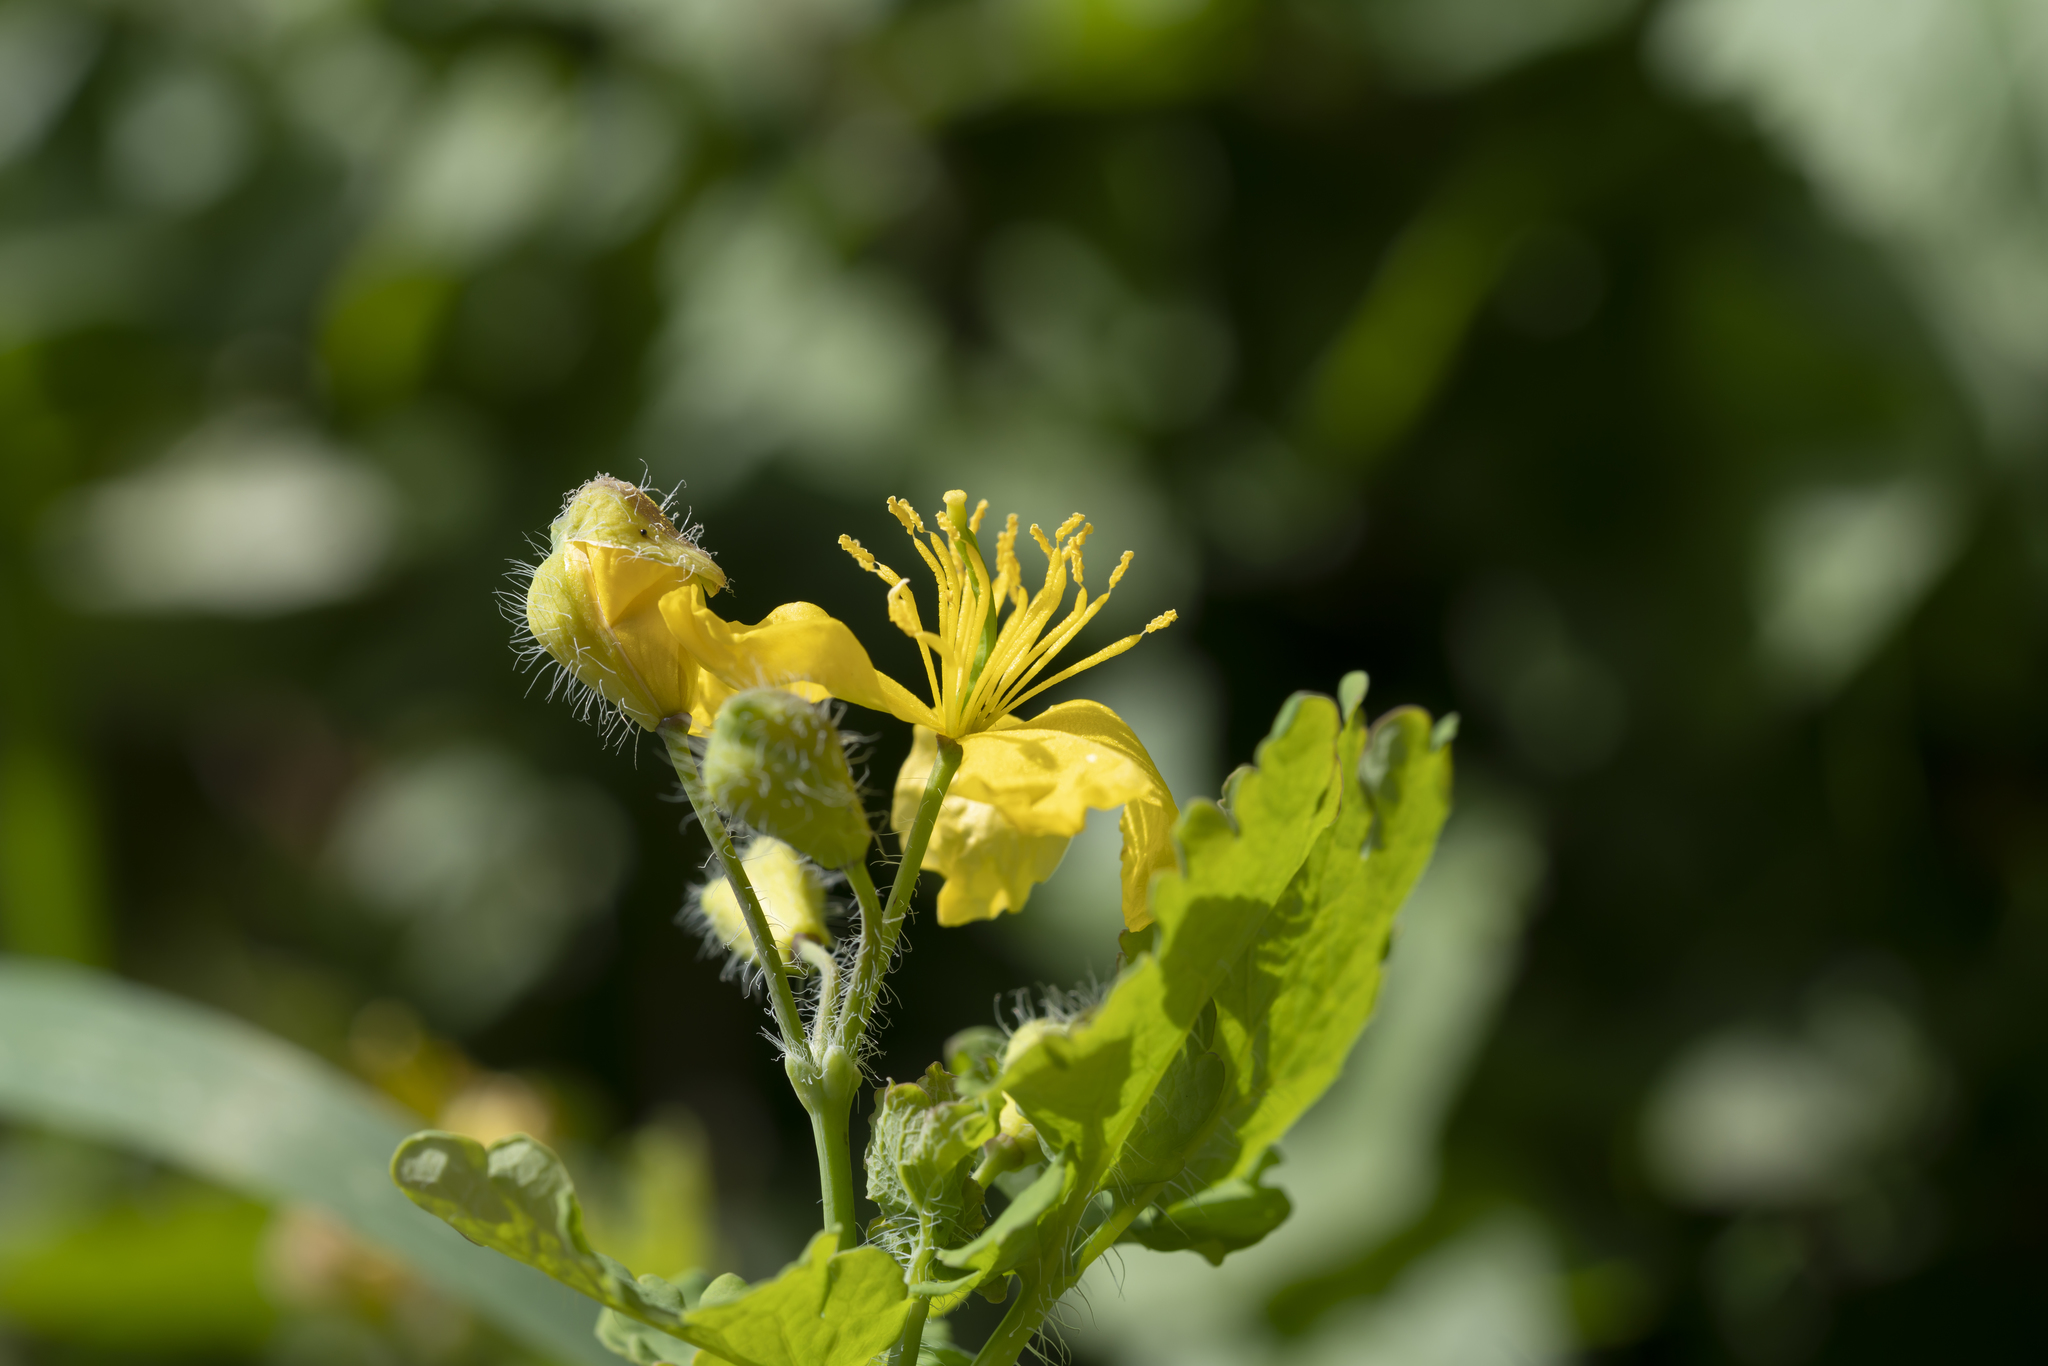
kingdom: Plantae
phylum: Tracheophyta
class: Magnoliopsida
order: Ranunculales
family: Papaveraceae
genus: Chelidonium
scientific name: Chelidonium majus
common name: Greater celandine
